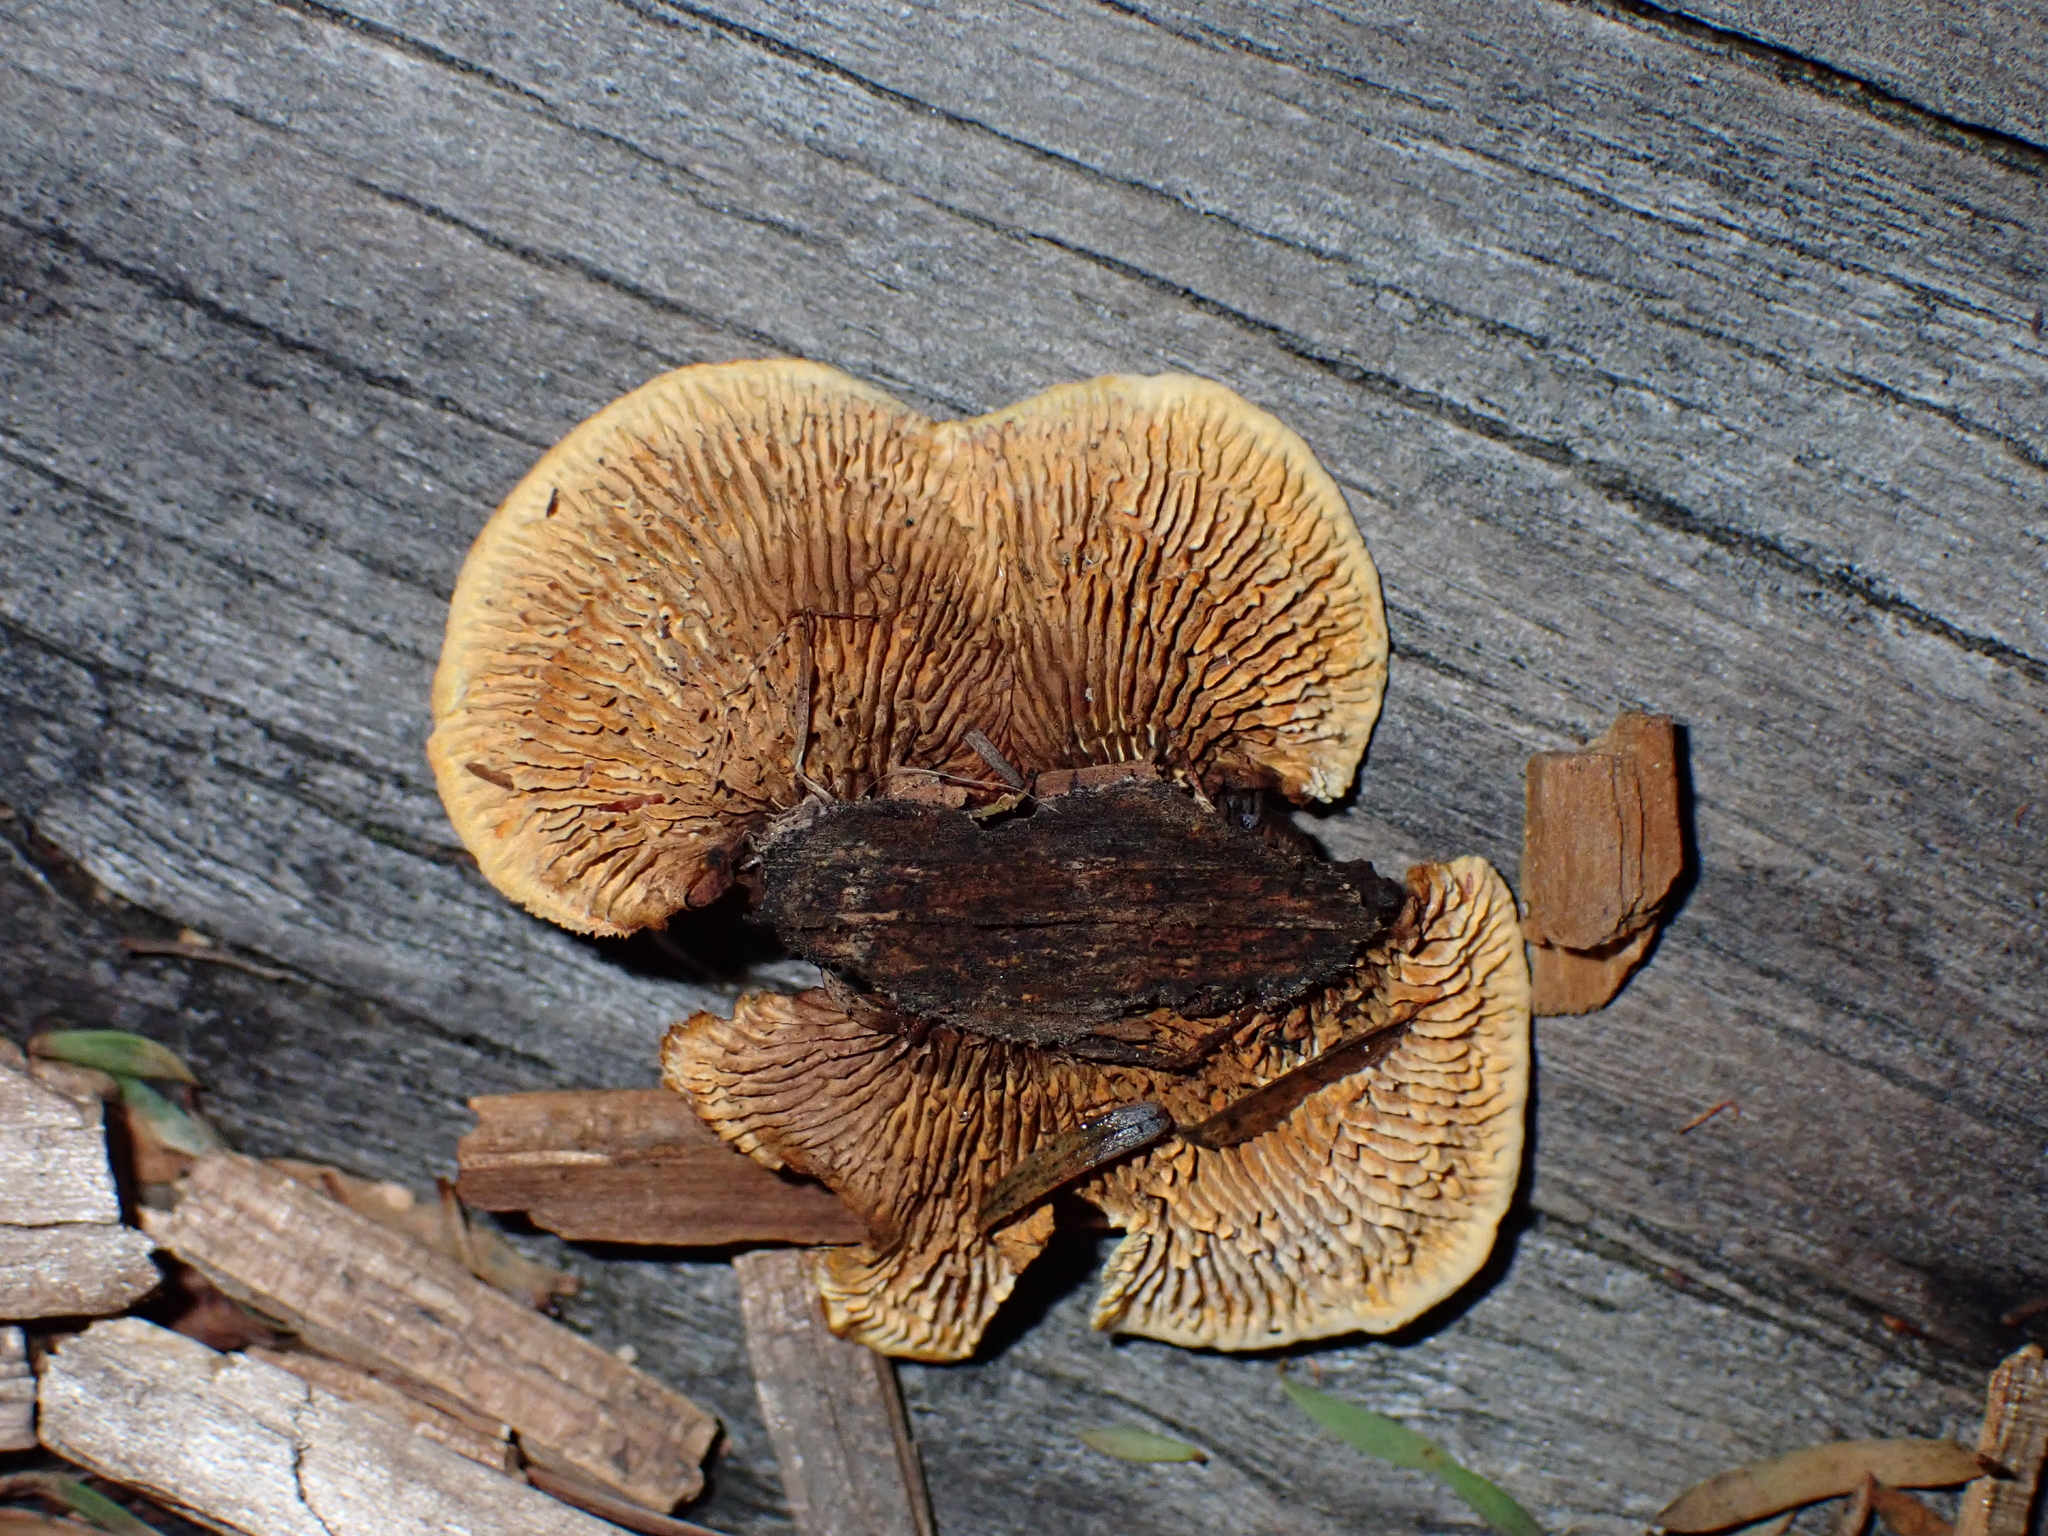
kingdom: Fungi
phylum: Basidiomycota
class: Agaricomycetes
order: Gloeophyllales
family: Gloeophyllaceae
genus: Gloeophyllum
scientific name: Gloeophyllum sepiarium
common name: Conifer mazegill
